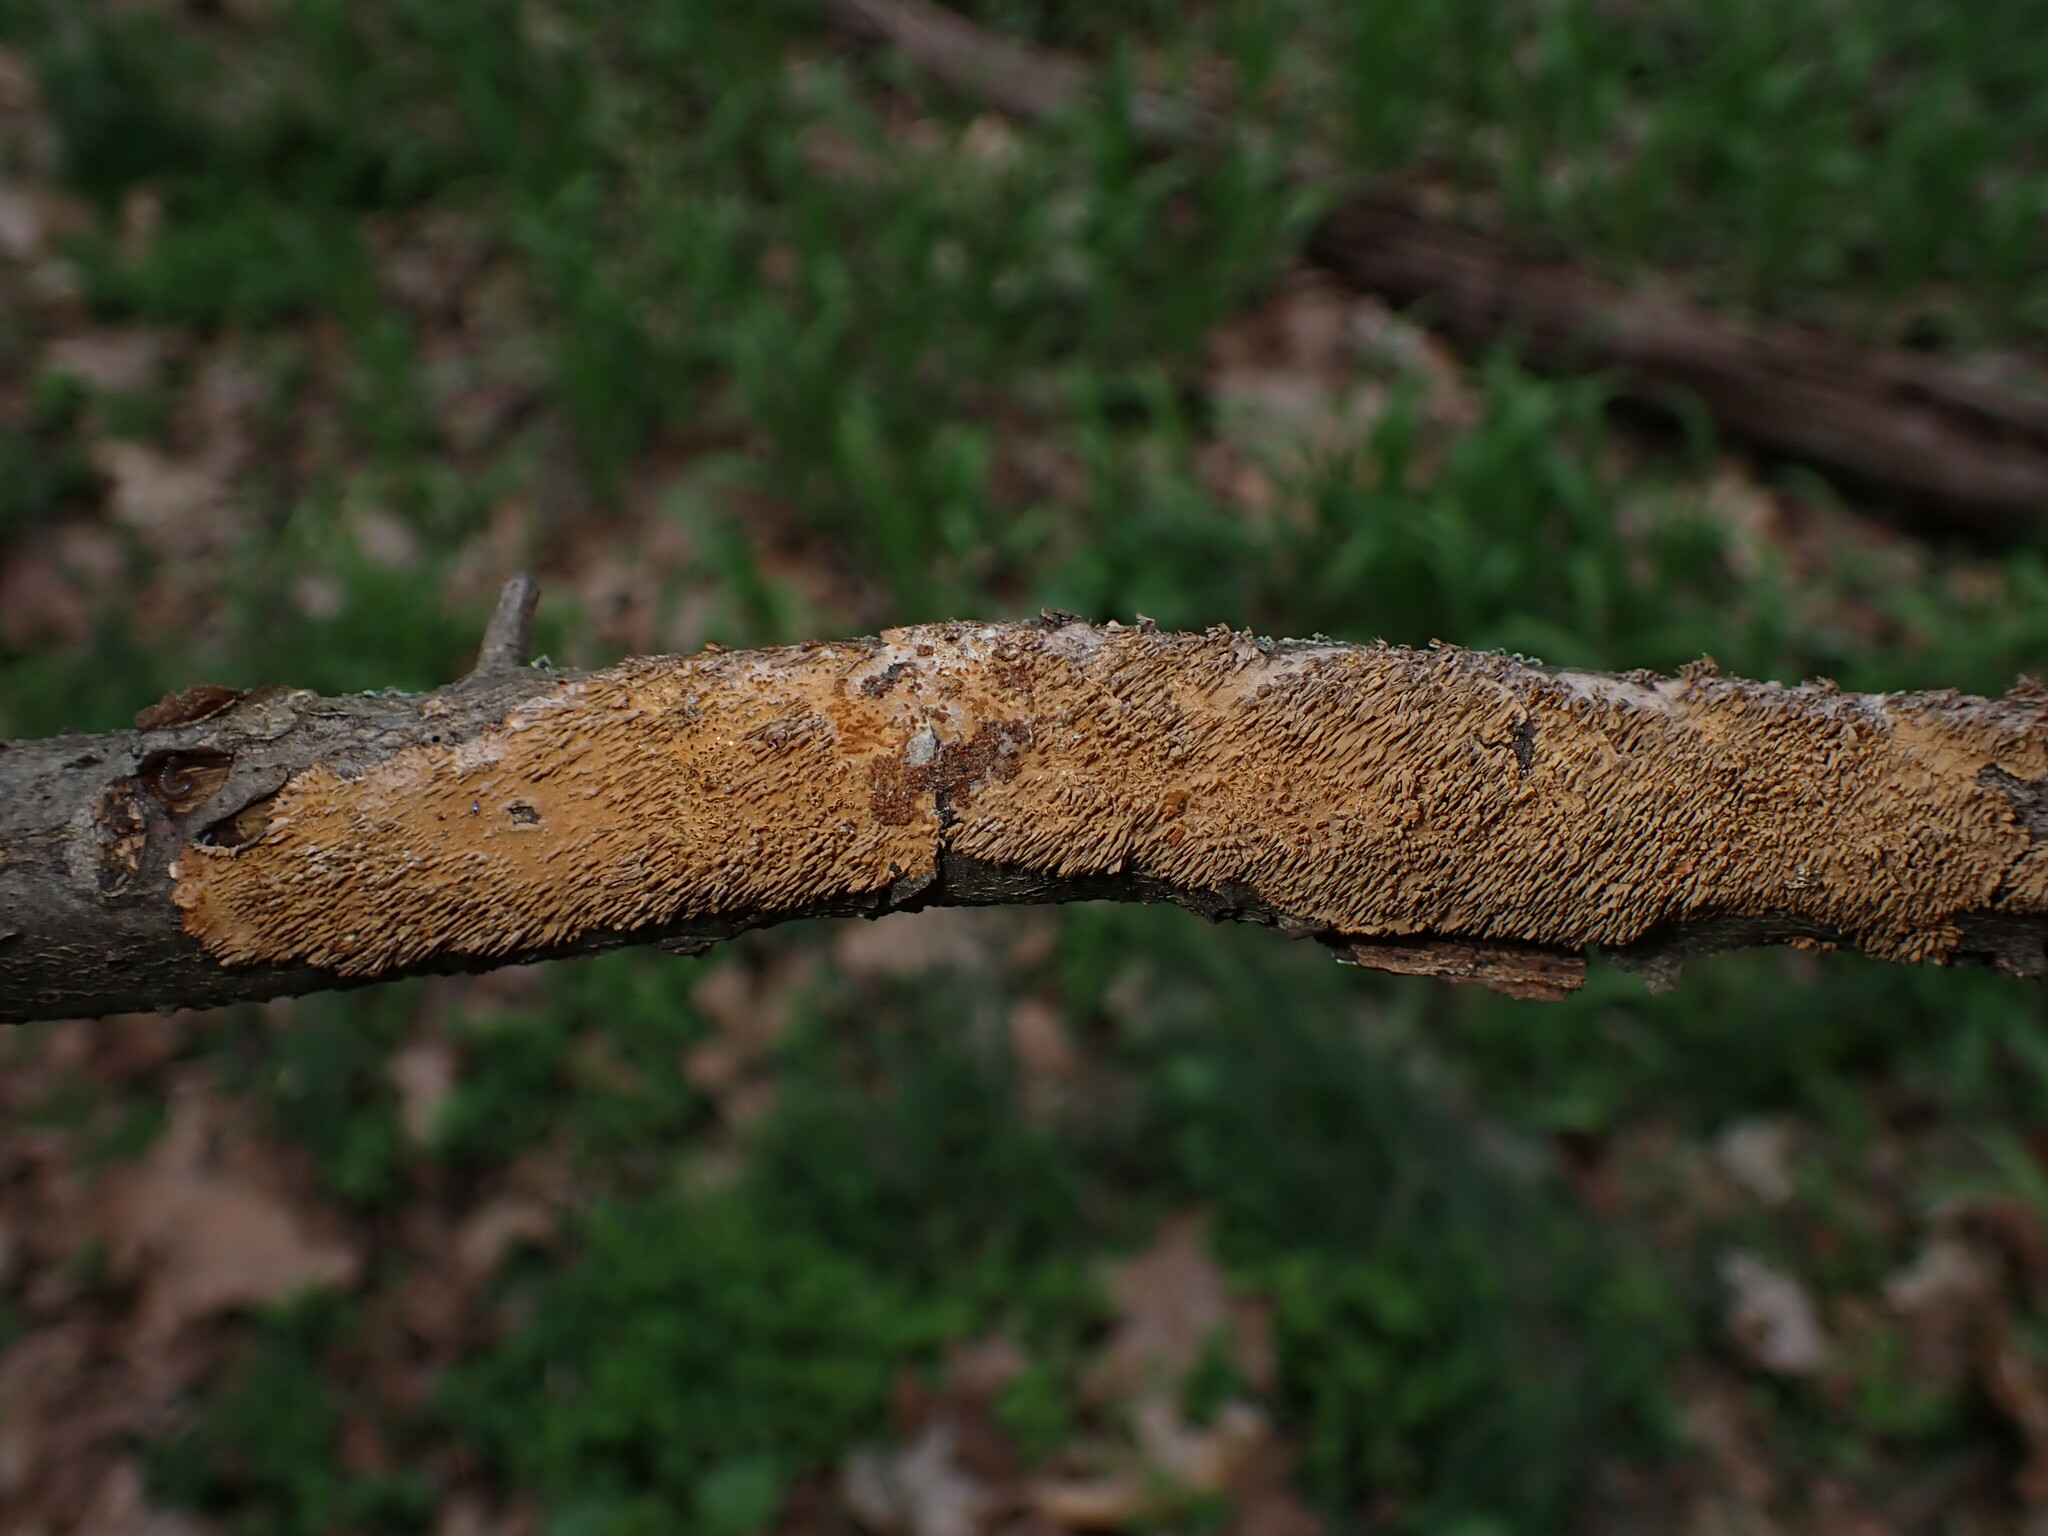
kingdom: Fungi
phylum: Basidiomycota
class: Agaricomycetes
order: Hymenochaetales
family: Hymenochaetaceae
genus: Hydnoporia
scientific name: Hydnoporia olivacea
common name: Brown-toothed crust fungus
